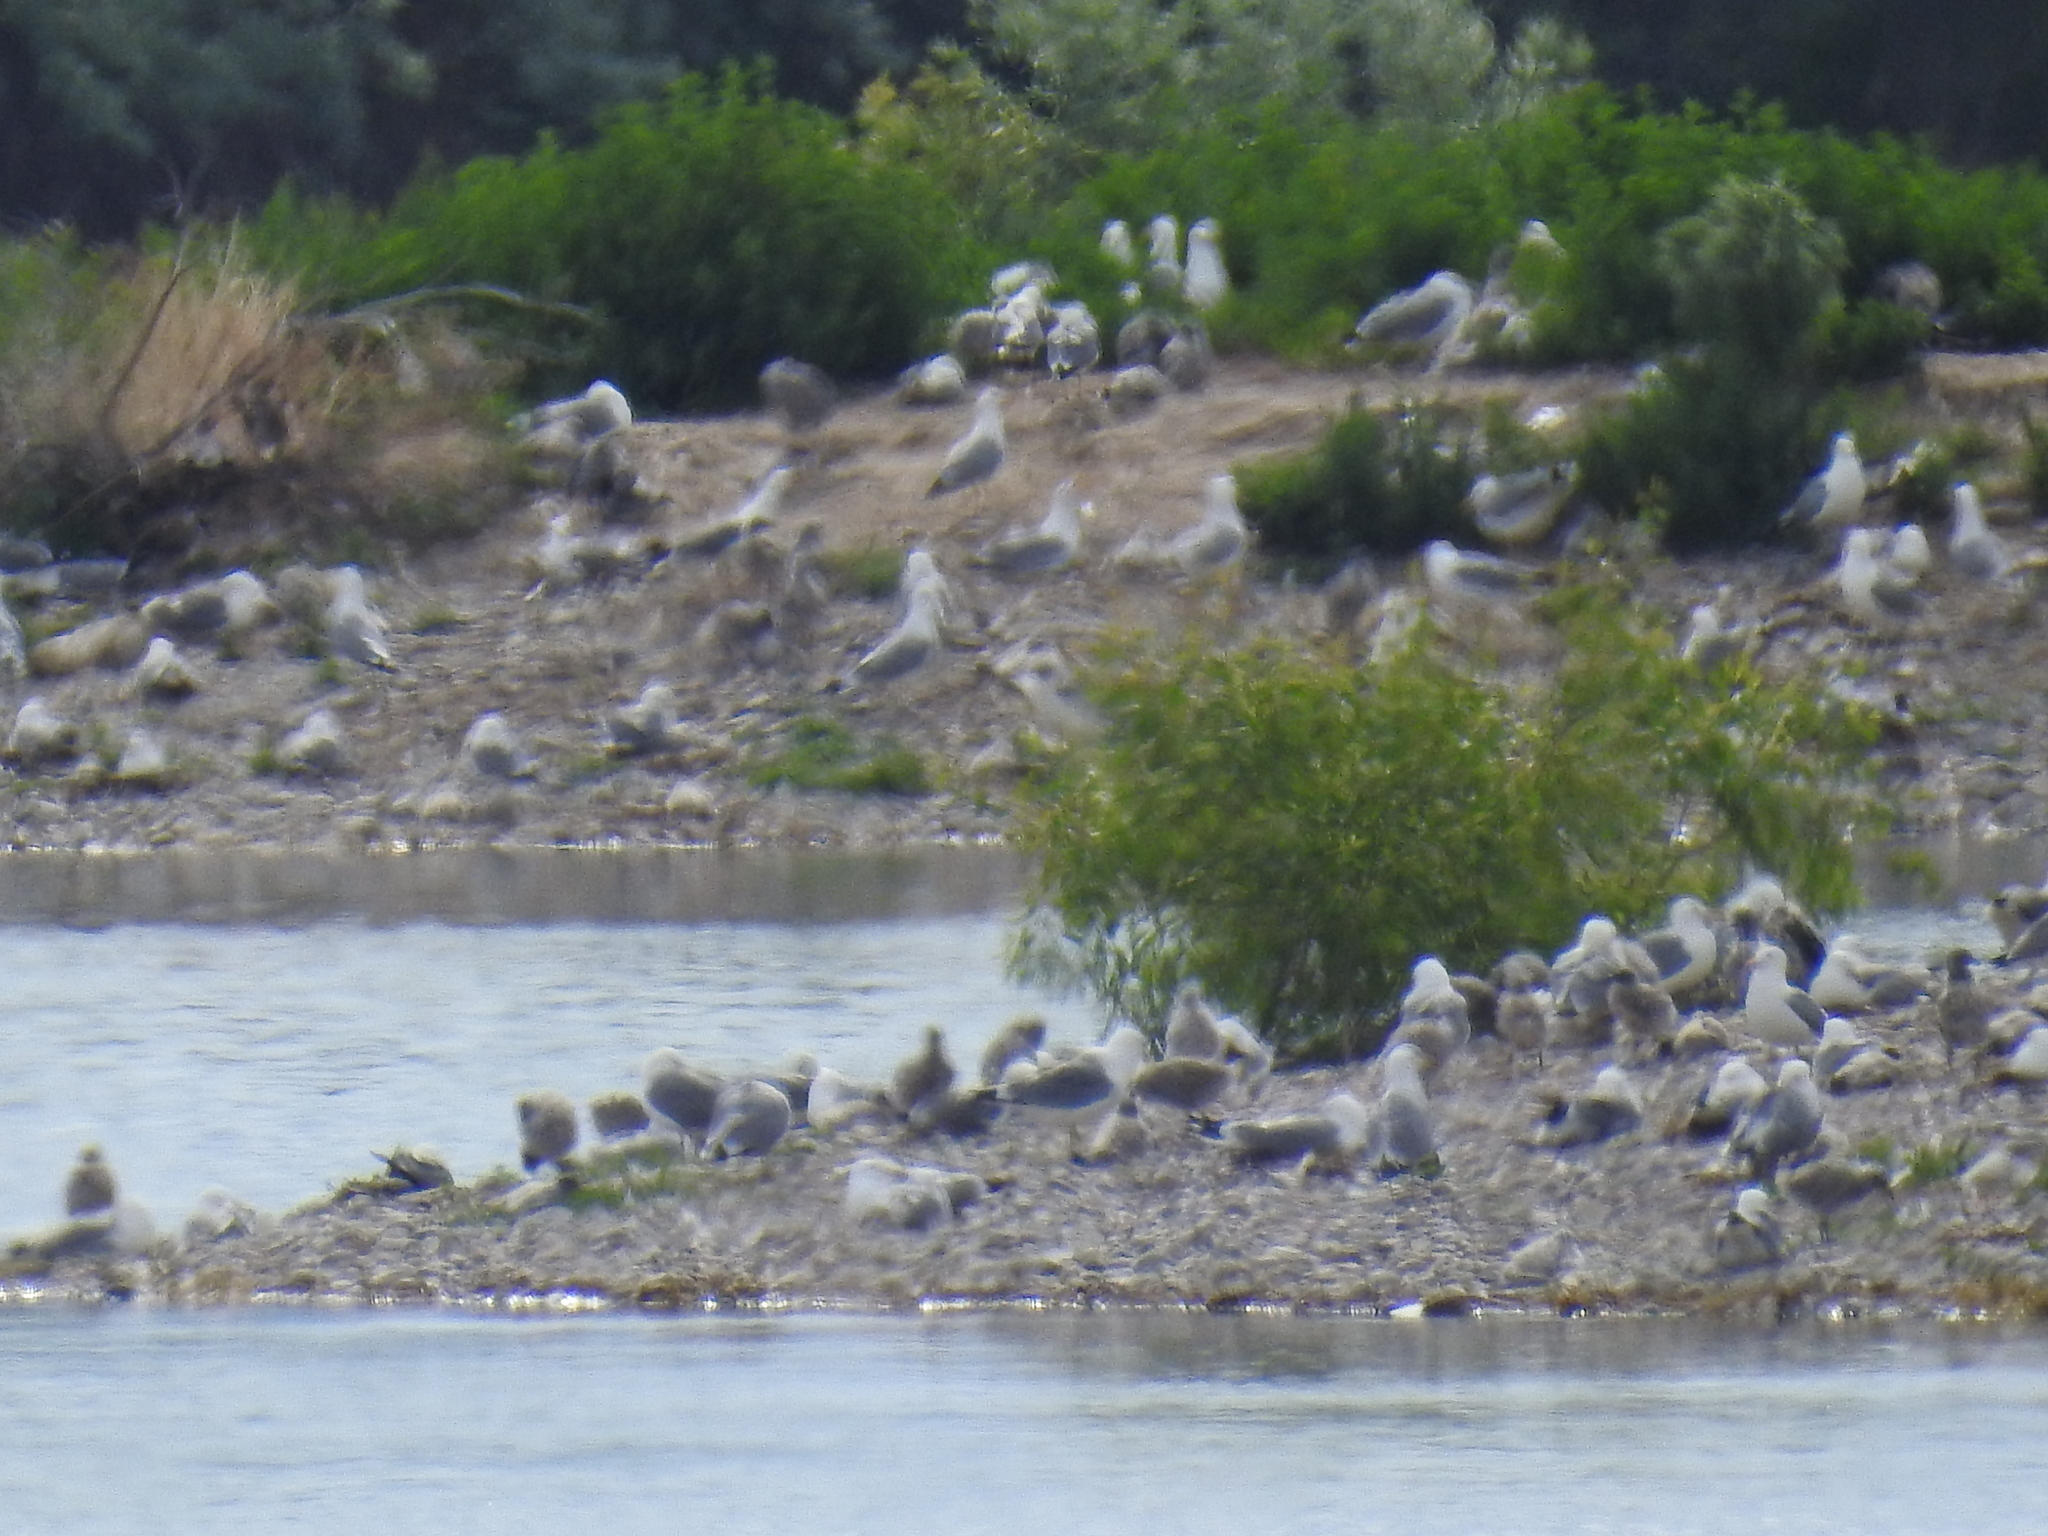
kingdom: Animalia
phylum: Chordata
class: Aves
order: Charadriiformes
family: Laridae
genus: Larus
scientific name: Larus californicus
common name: California gull
